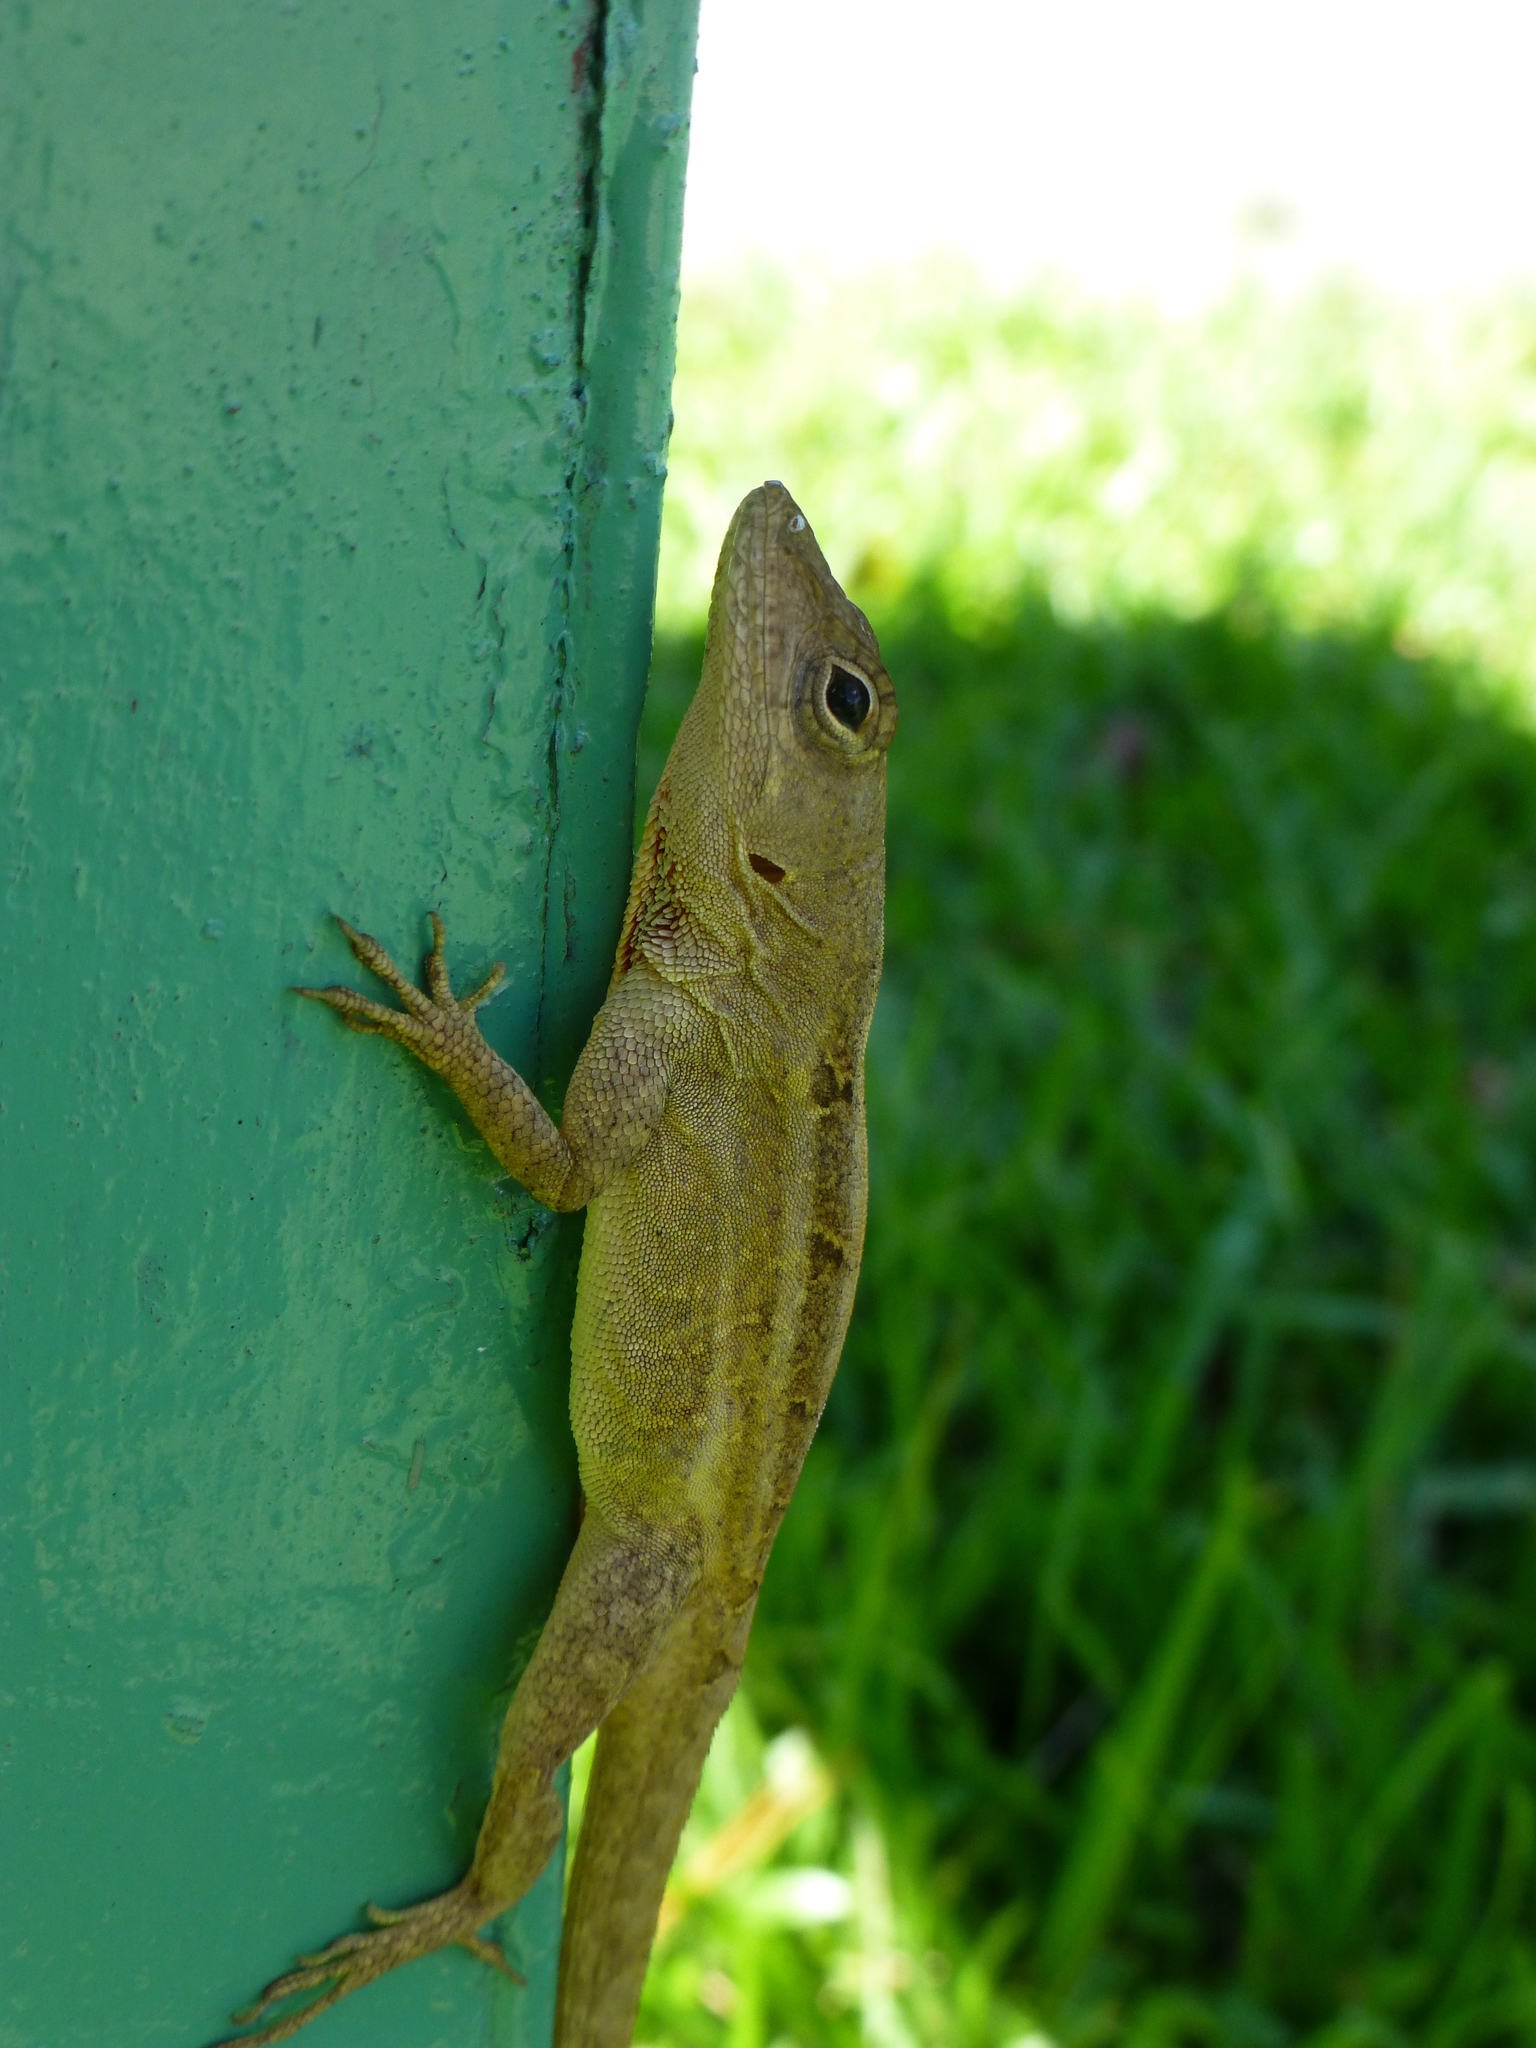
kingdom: Animalia
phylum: Chordata
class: Squamata
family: Dactyloidae
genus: Anolis
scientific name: Anolis sagrei
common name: Brown anole
